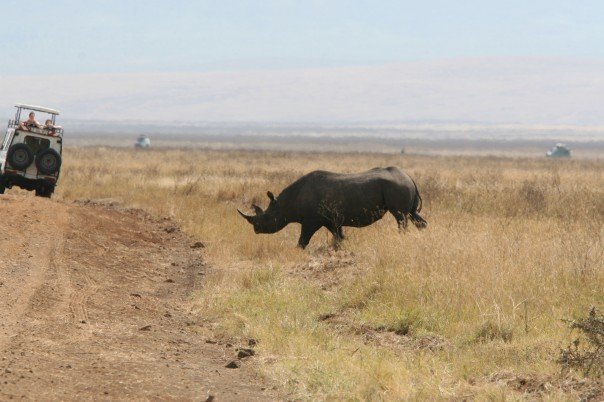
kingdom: Animalia
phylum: Chordata
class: Mammalia
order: Perissodactyla
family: Rhinocerotidae
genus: Diceros
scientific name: Diceros bicornis
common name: Black rhinoceros
